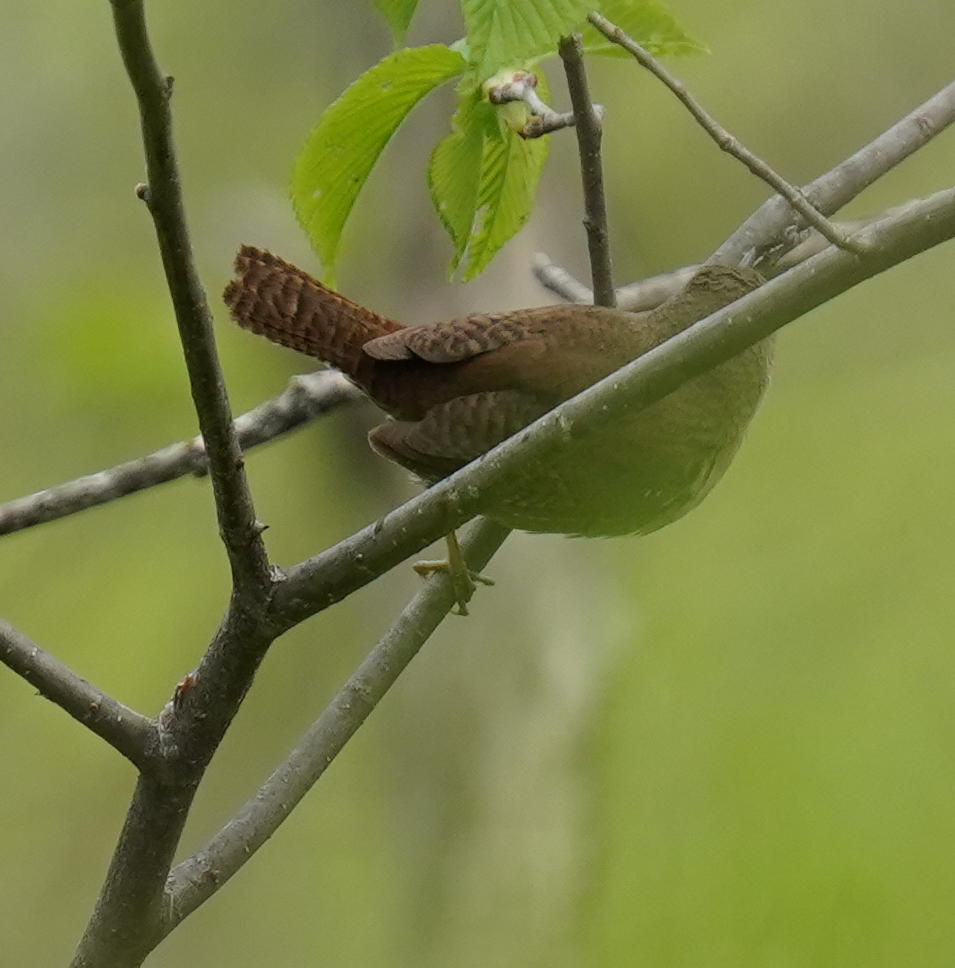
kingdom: Animalia
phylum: Chordata
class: Aves
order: Passeriformes
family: Troglodytidae
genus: Troglodytes
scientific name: Troglodytes aedon
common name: House wren
